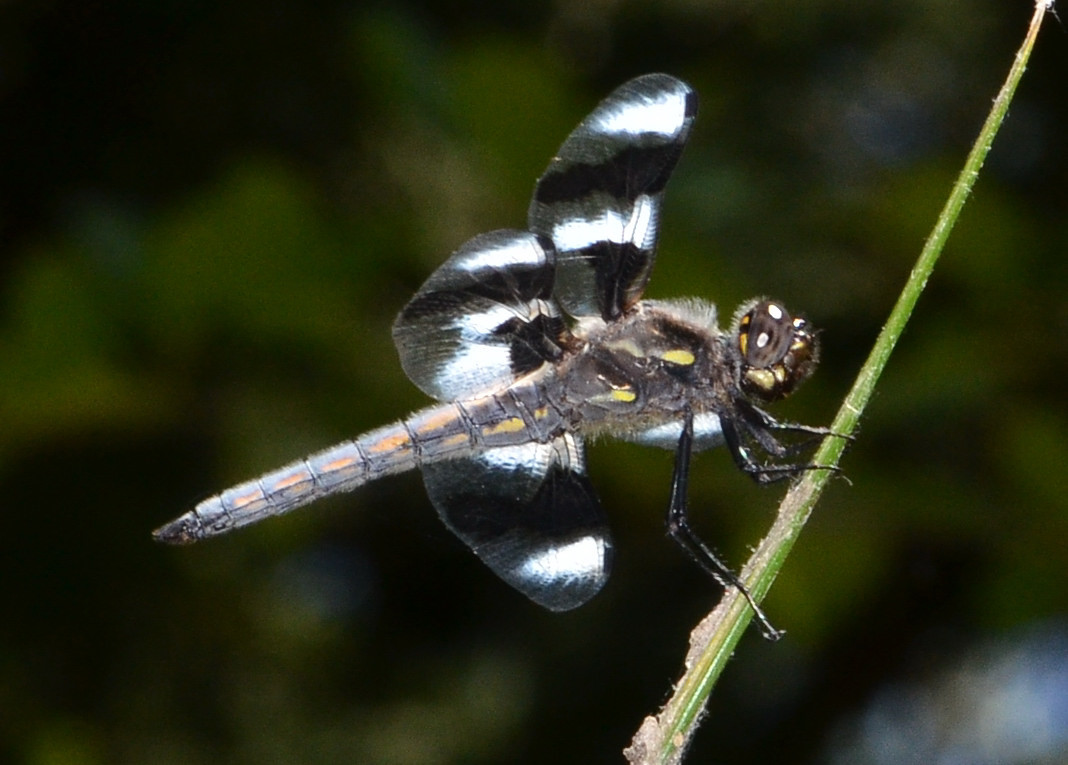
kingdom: Animalia
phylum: Arthropoda
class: Insecta
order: Odonata
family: Libellulidae
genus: Libellula
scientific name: Libellula forensis
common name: Eight-spotted skimmer
